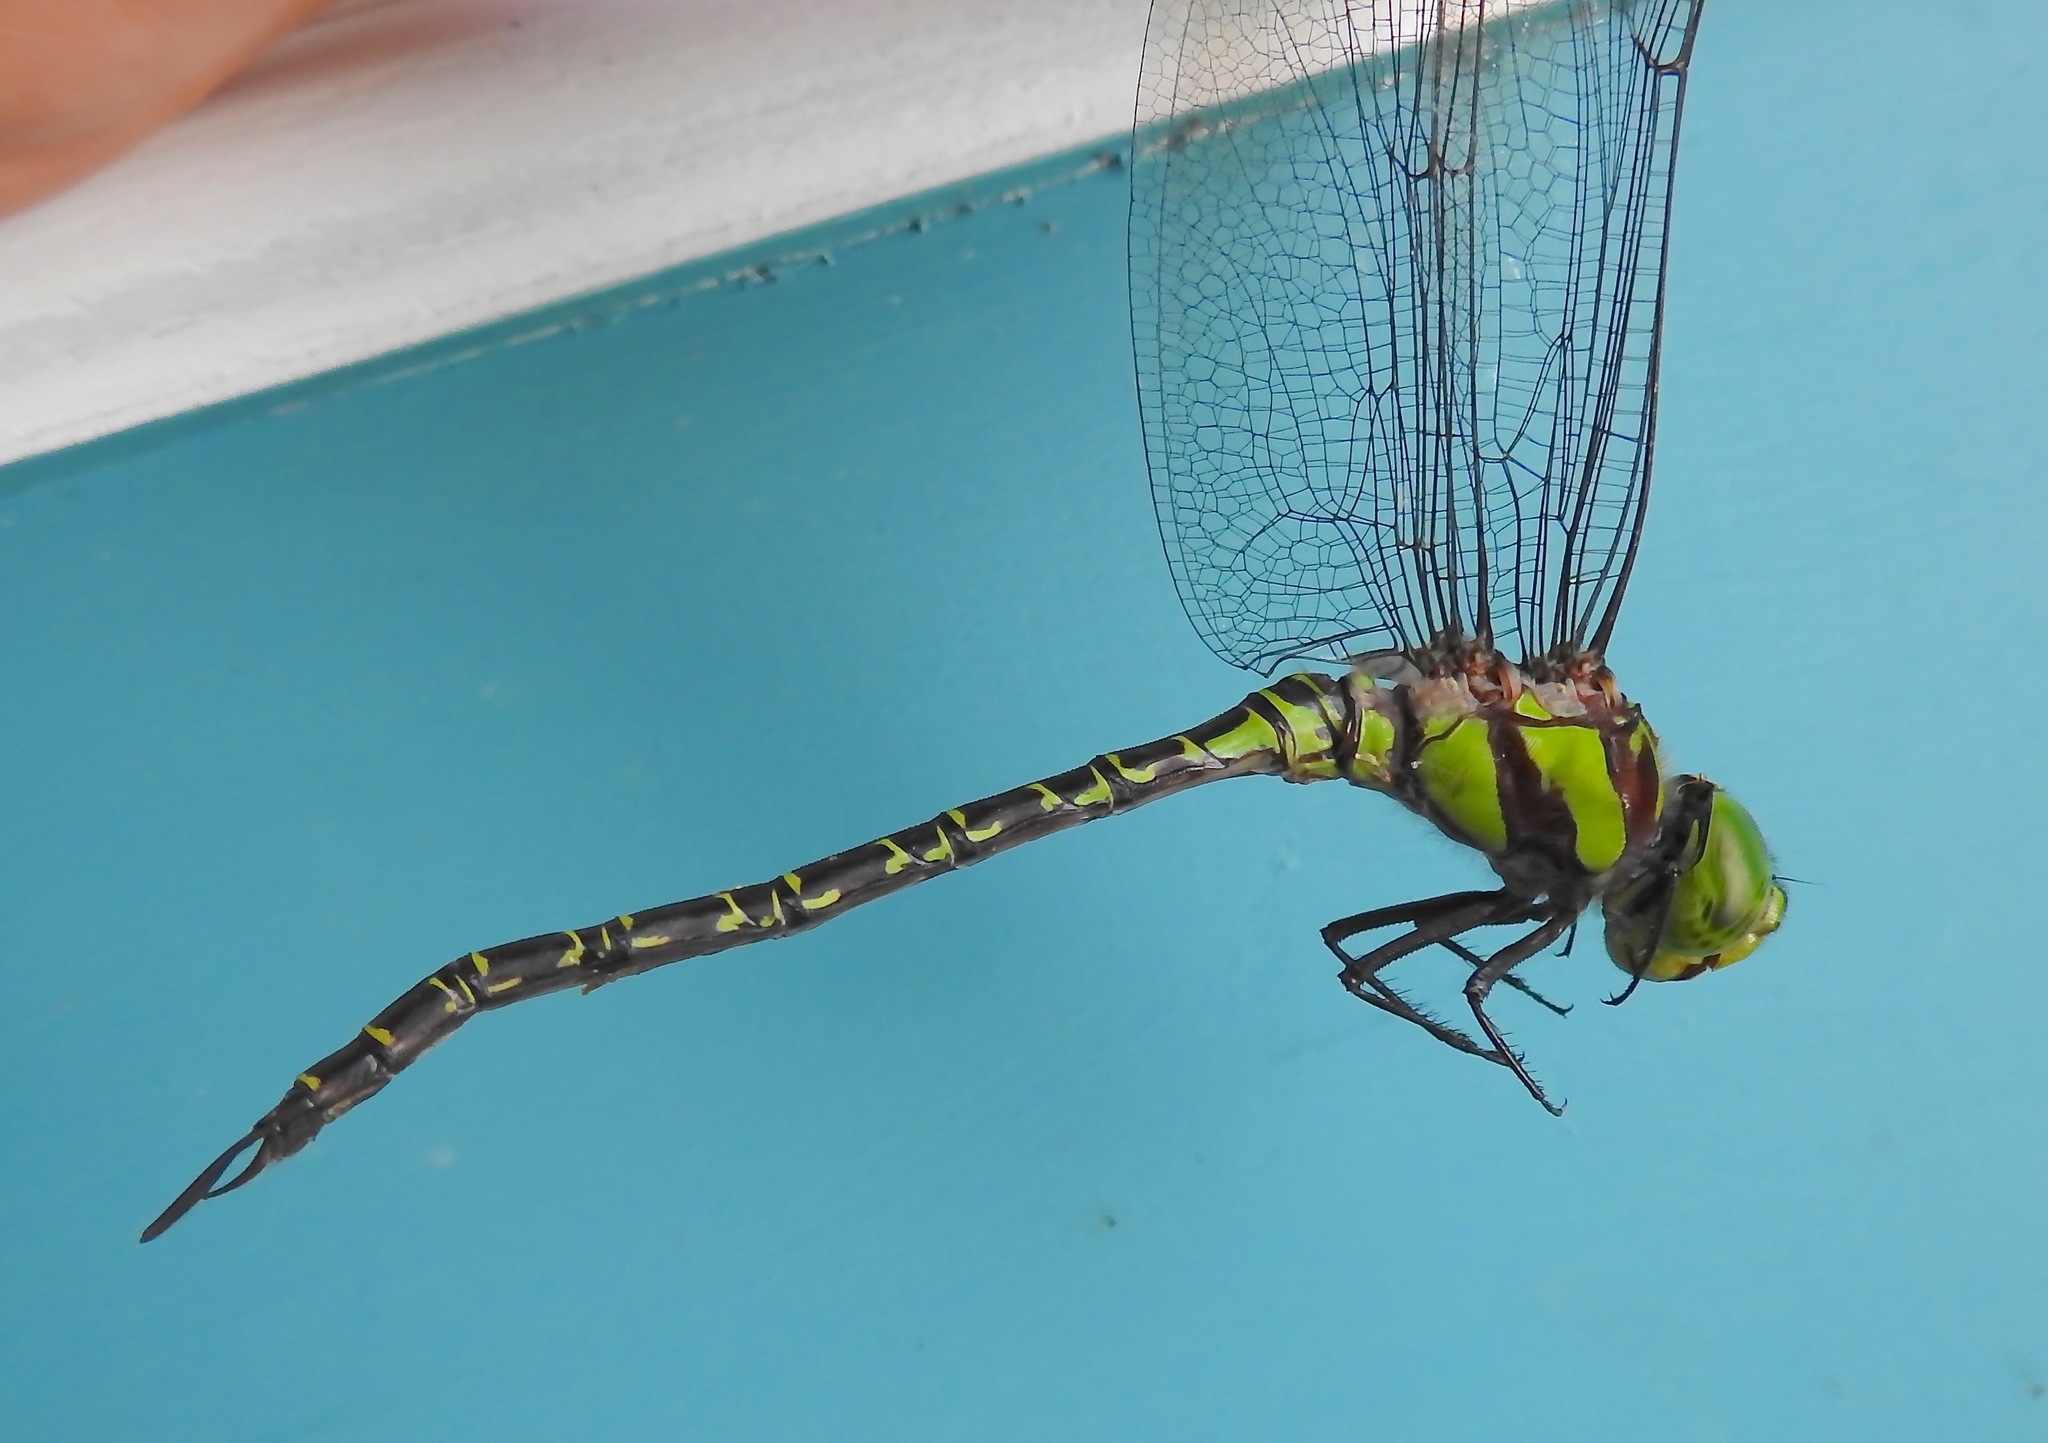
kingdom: Animalia
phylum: Arthropoda
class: Insecta
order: Odonata
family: Aeshnidae
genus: Coryphaeschna
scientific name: Coryphaeschna ingens
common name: Regal darner
